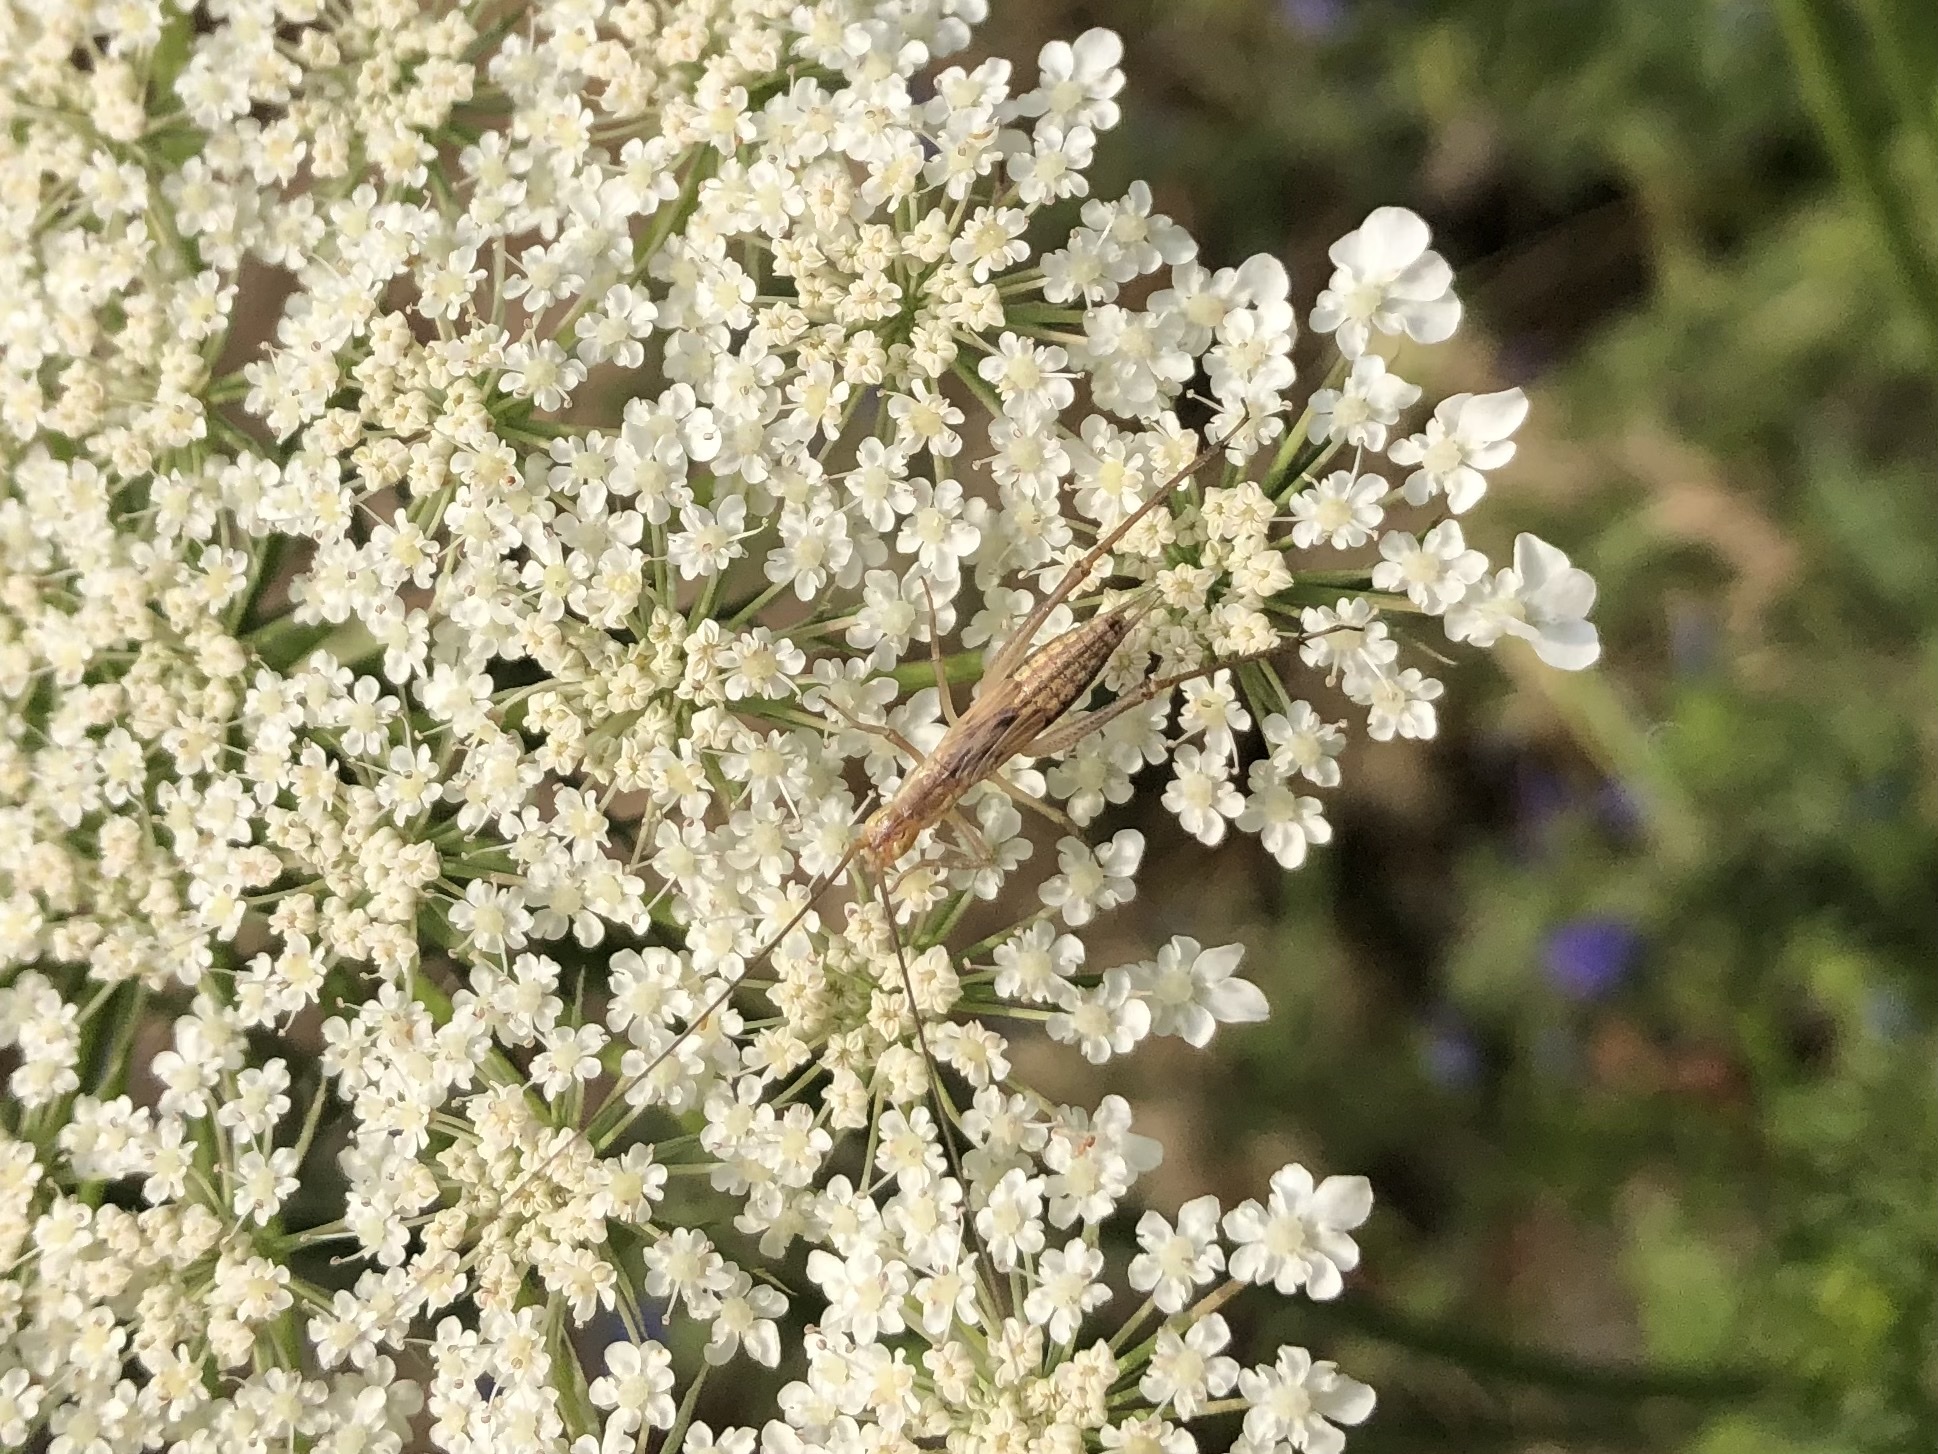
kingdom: Animalia
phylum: Arthropoda
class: Insecta
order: Orthoptera
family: Gryllidae
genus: Oecanthus
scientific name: Oecanthus pellucens
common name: Tree-cricket
